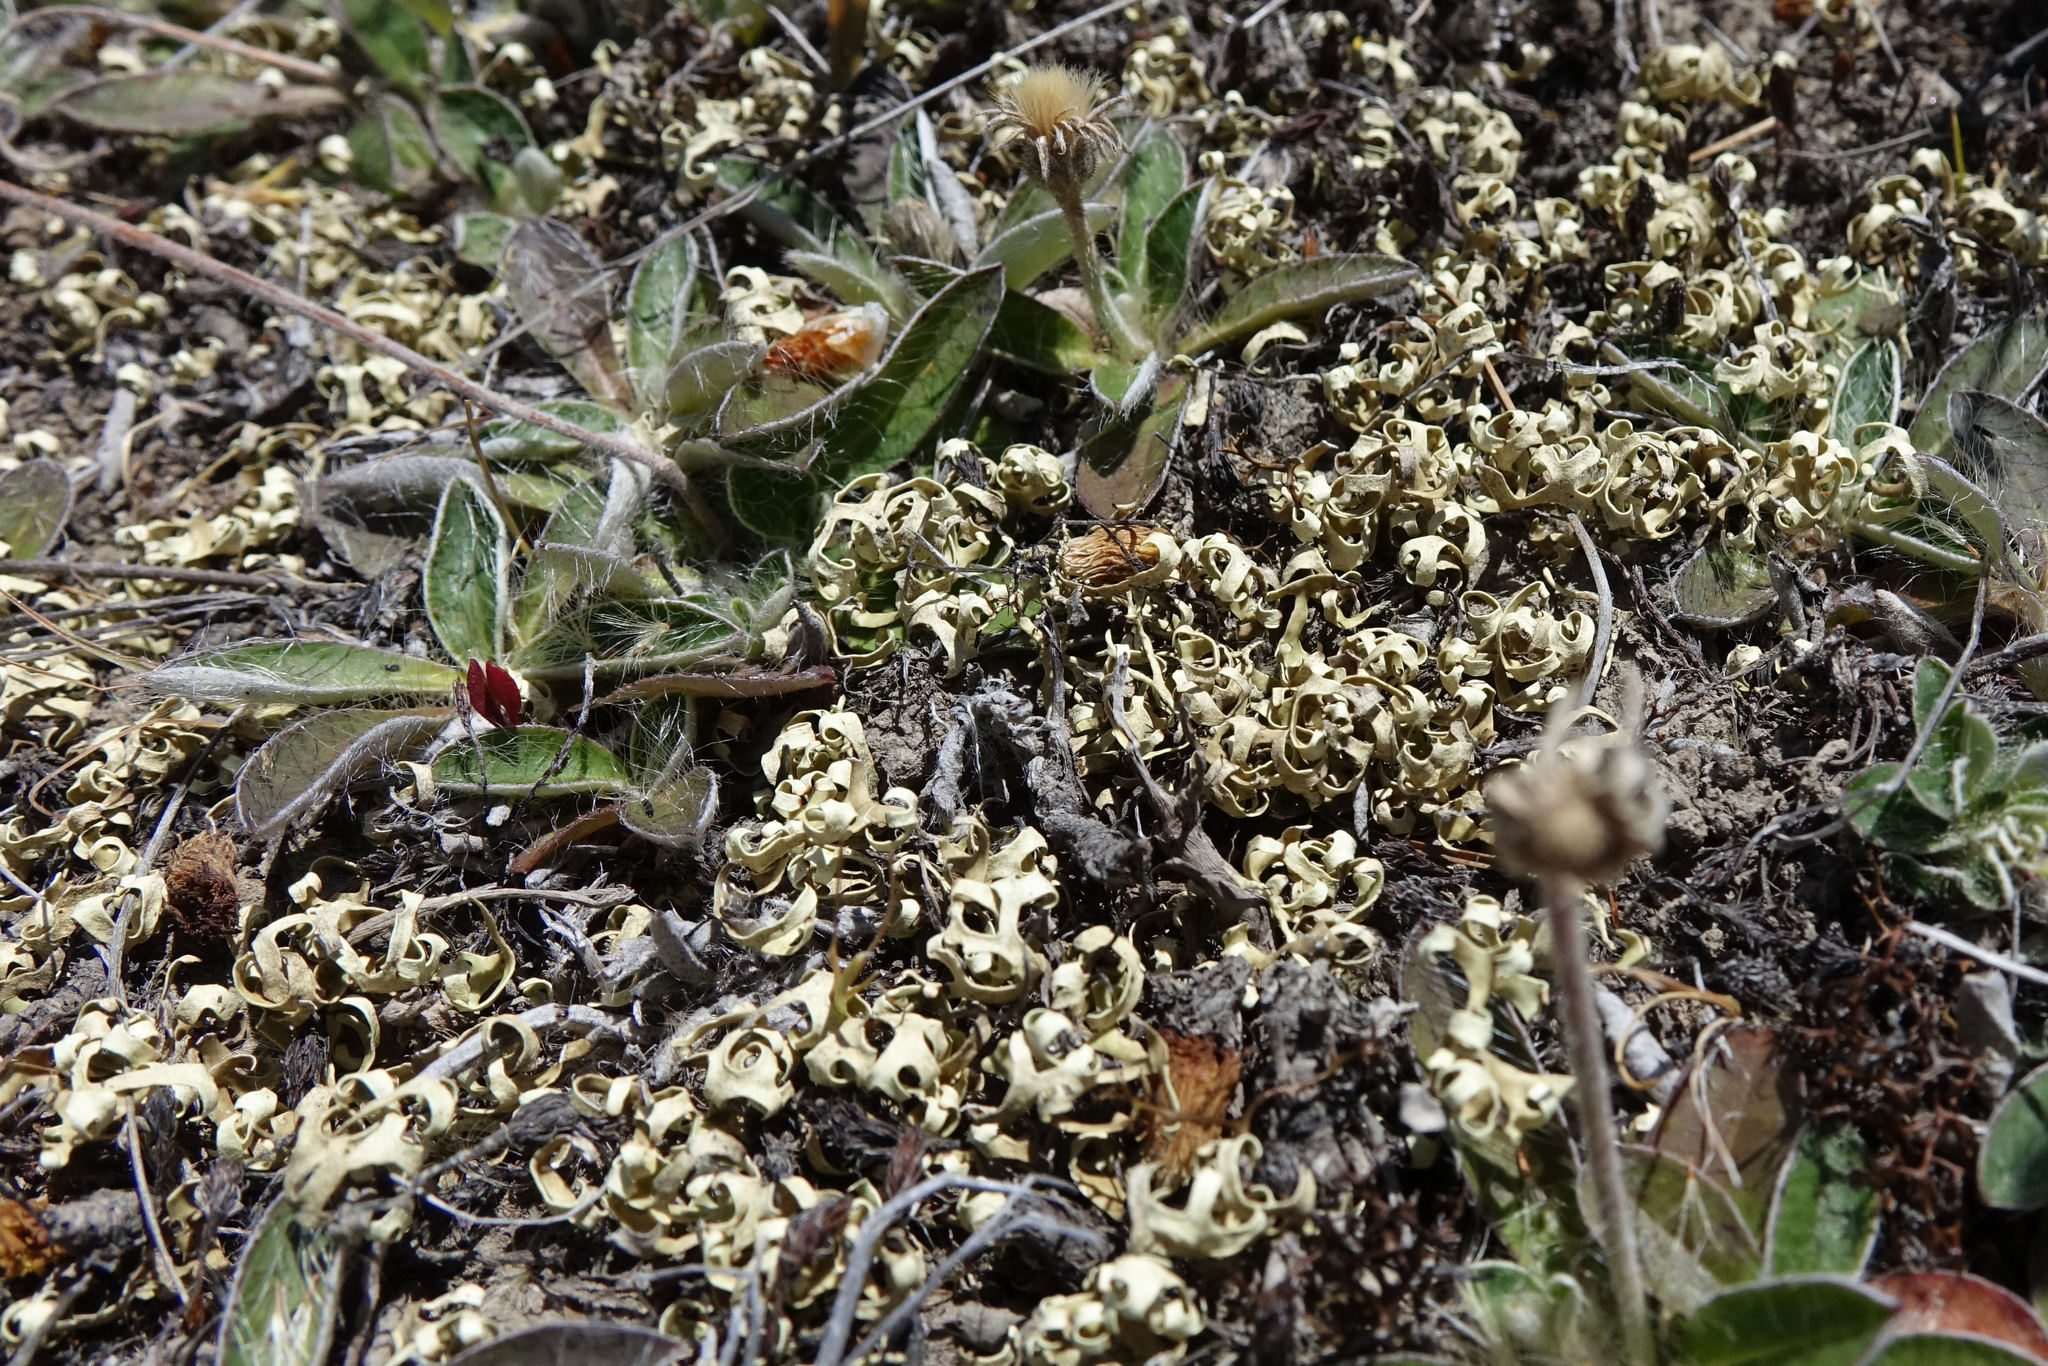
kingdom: Fungi
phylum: Ascomycota
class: Lecanoromycetes
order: Lecanorales
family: Parmeliaceae
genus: Xanthoparmelia
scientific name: Xanthoparmelia semiviridis
